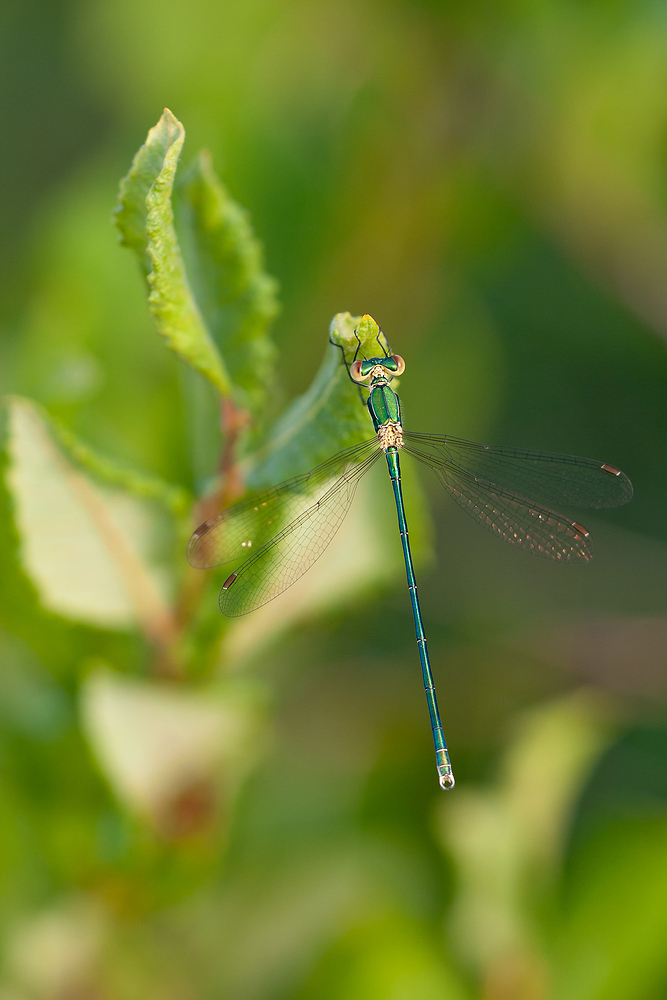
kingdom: Animalia
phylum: Arthropoda
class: Insecta
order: Odonata
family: Lestidae
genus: Lestes
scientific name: Lestes virens
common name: Small emerald spreadwing
